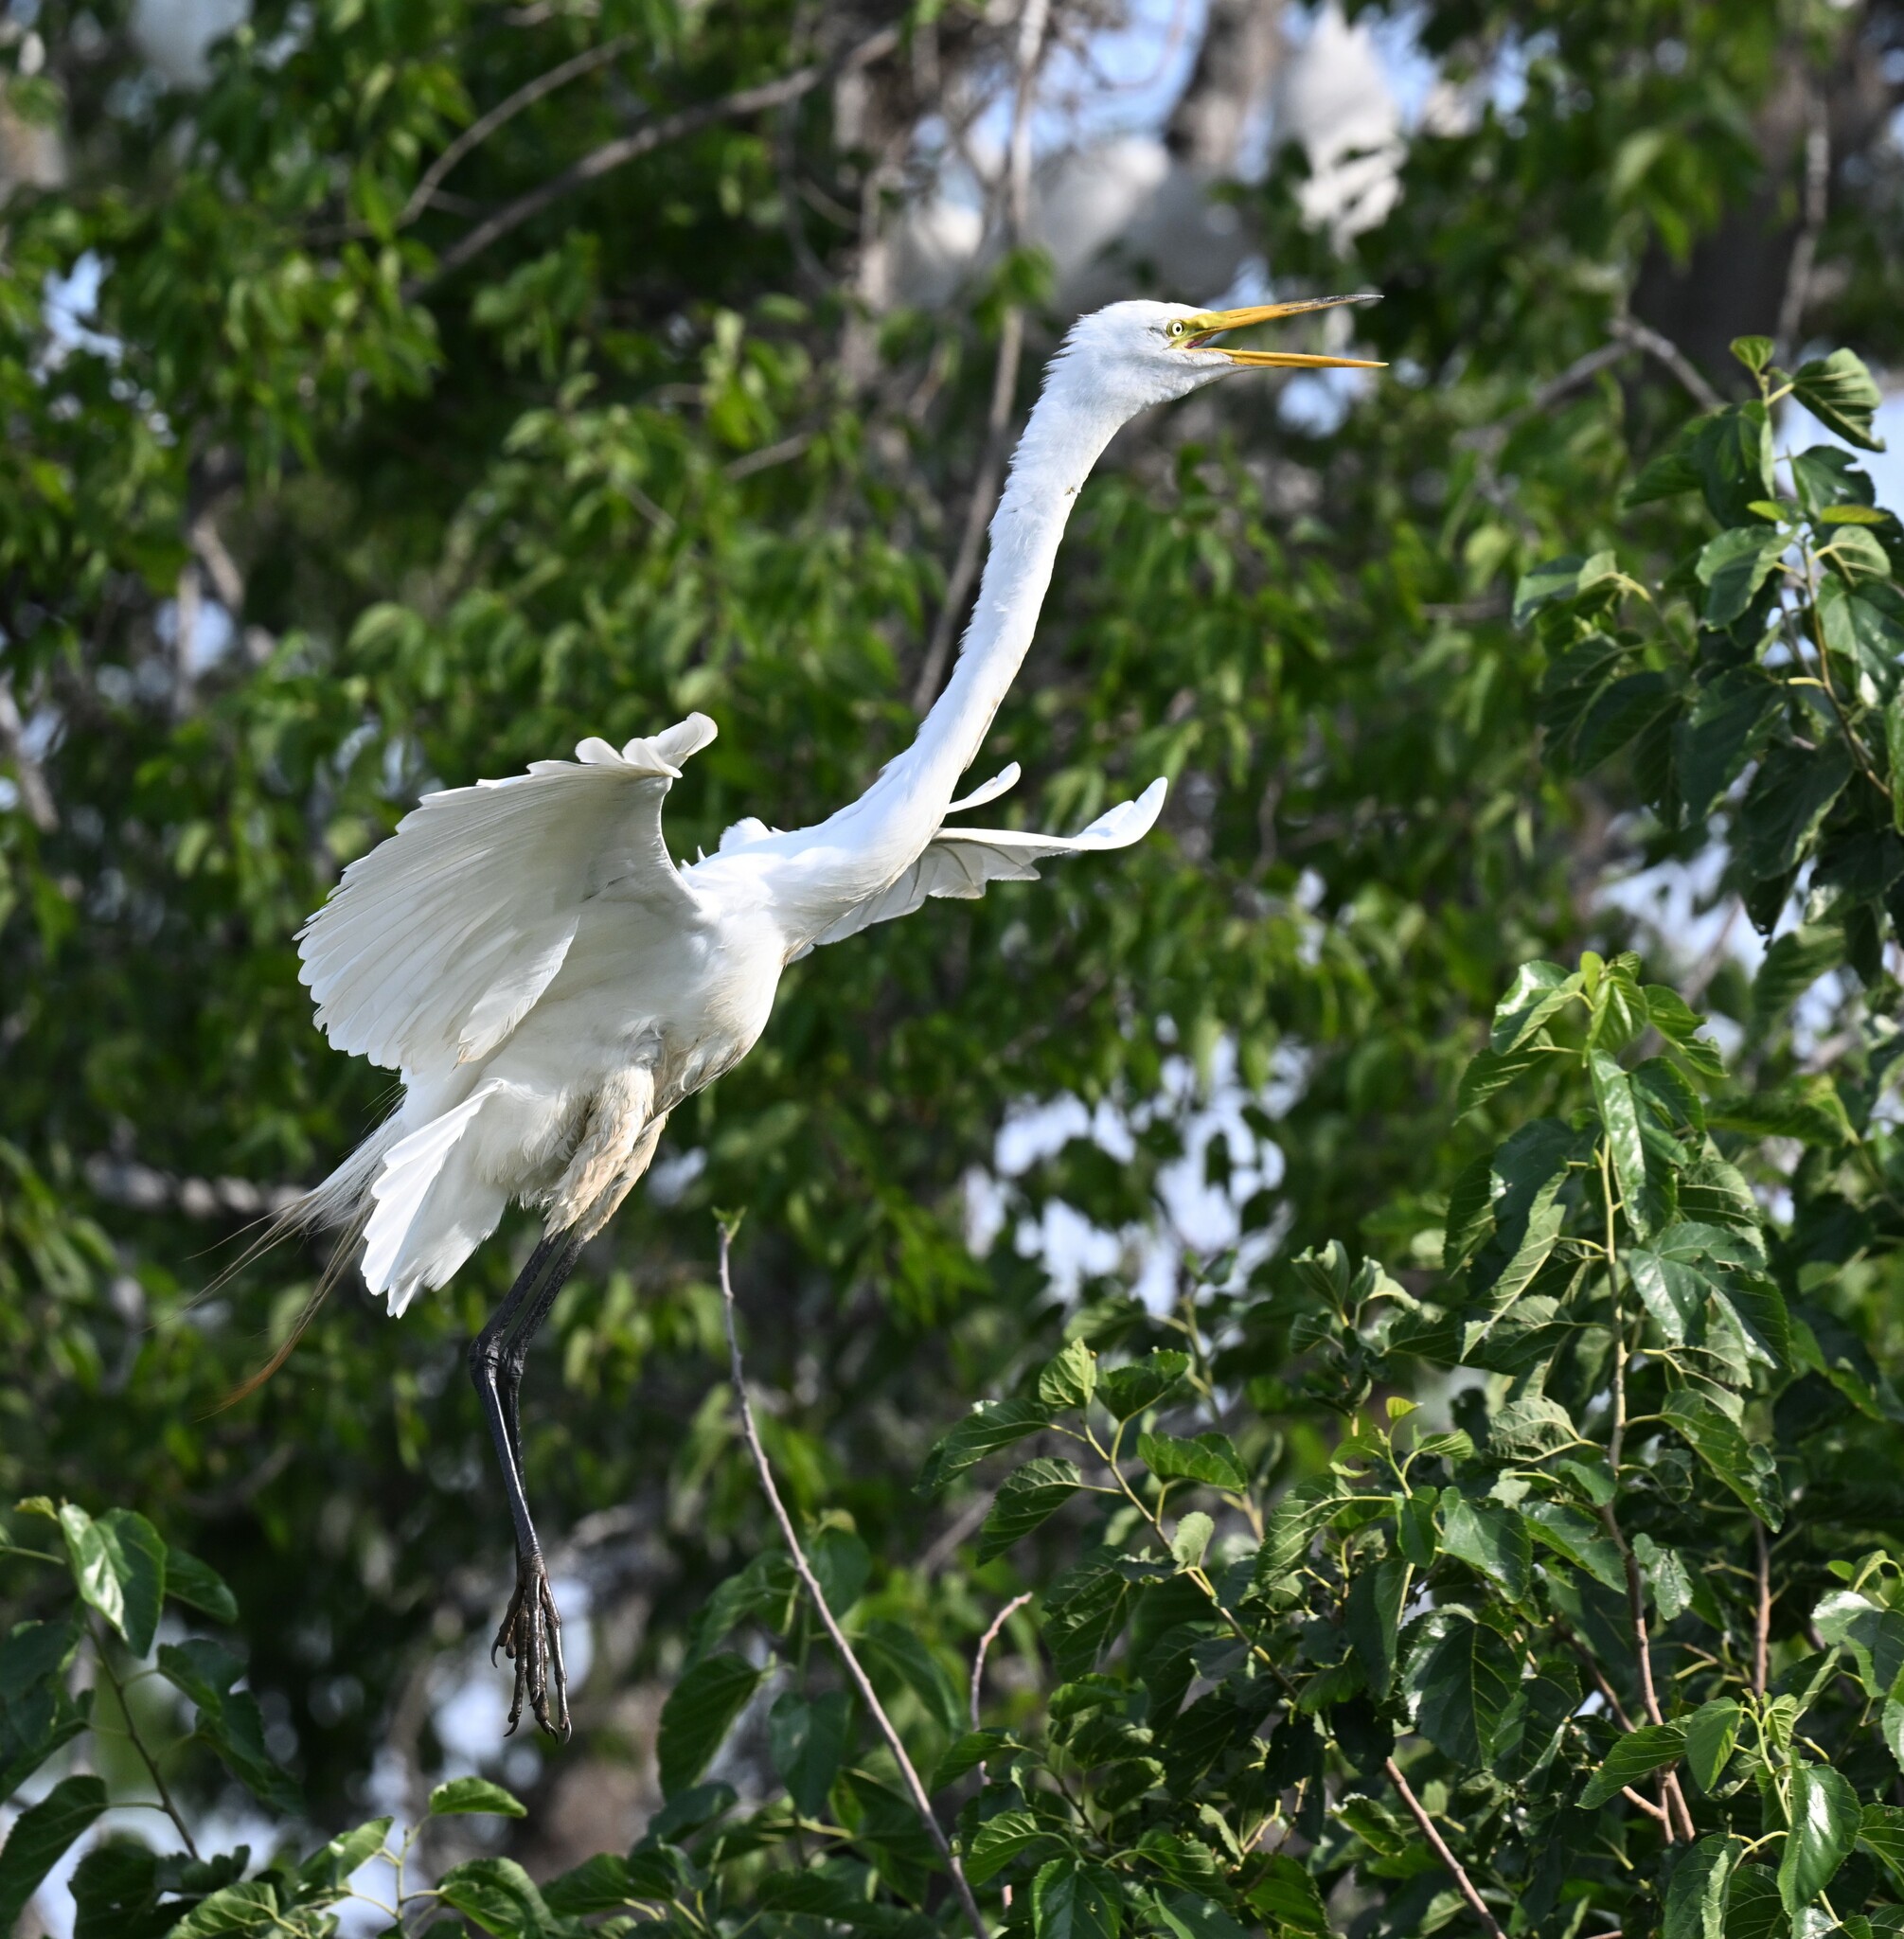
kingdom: Animalia
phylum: Chordata
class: Aves
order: Pelecaniformes
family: Ardeidae
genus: Ardea
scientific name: Ardea alba
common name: Great egret
